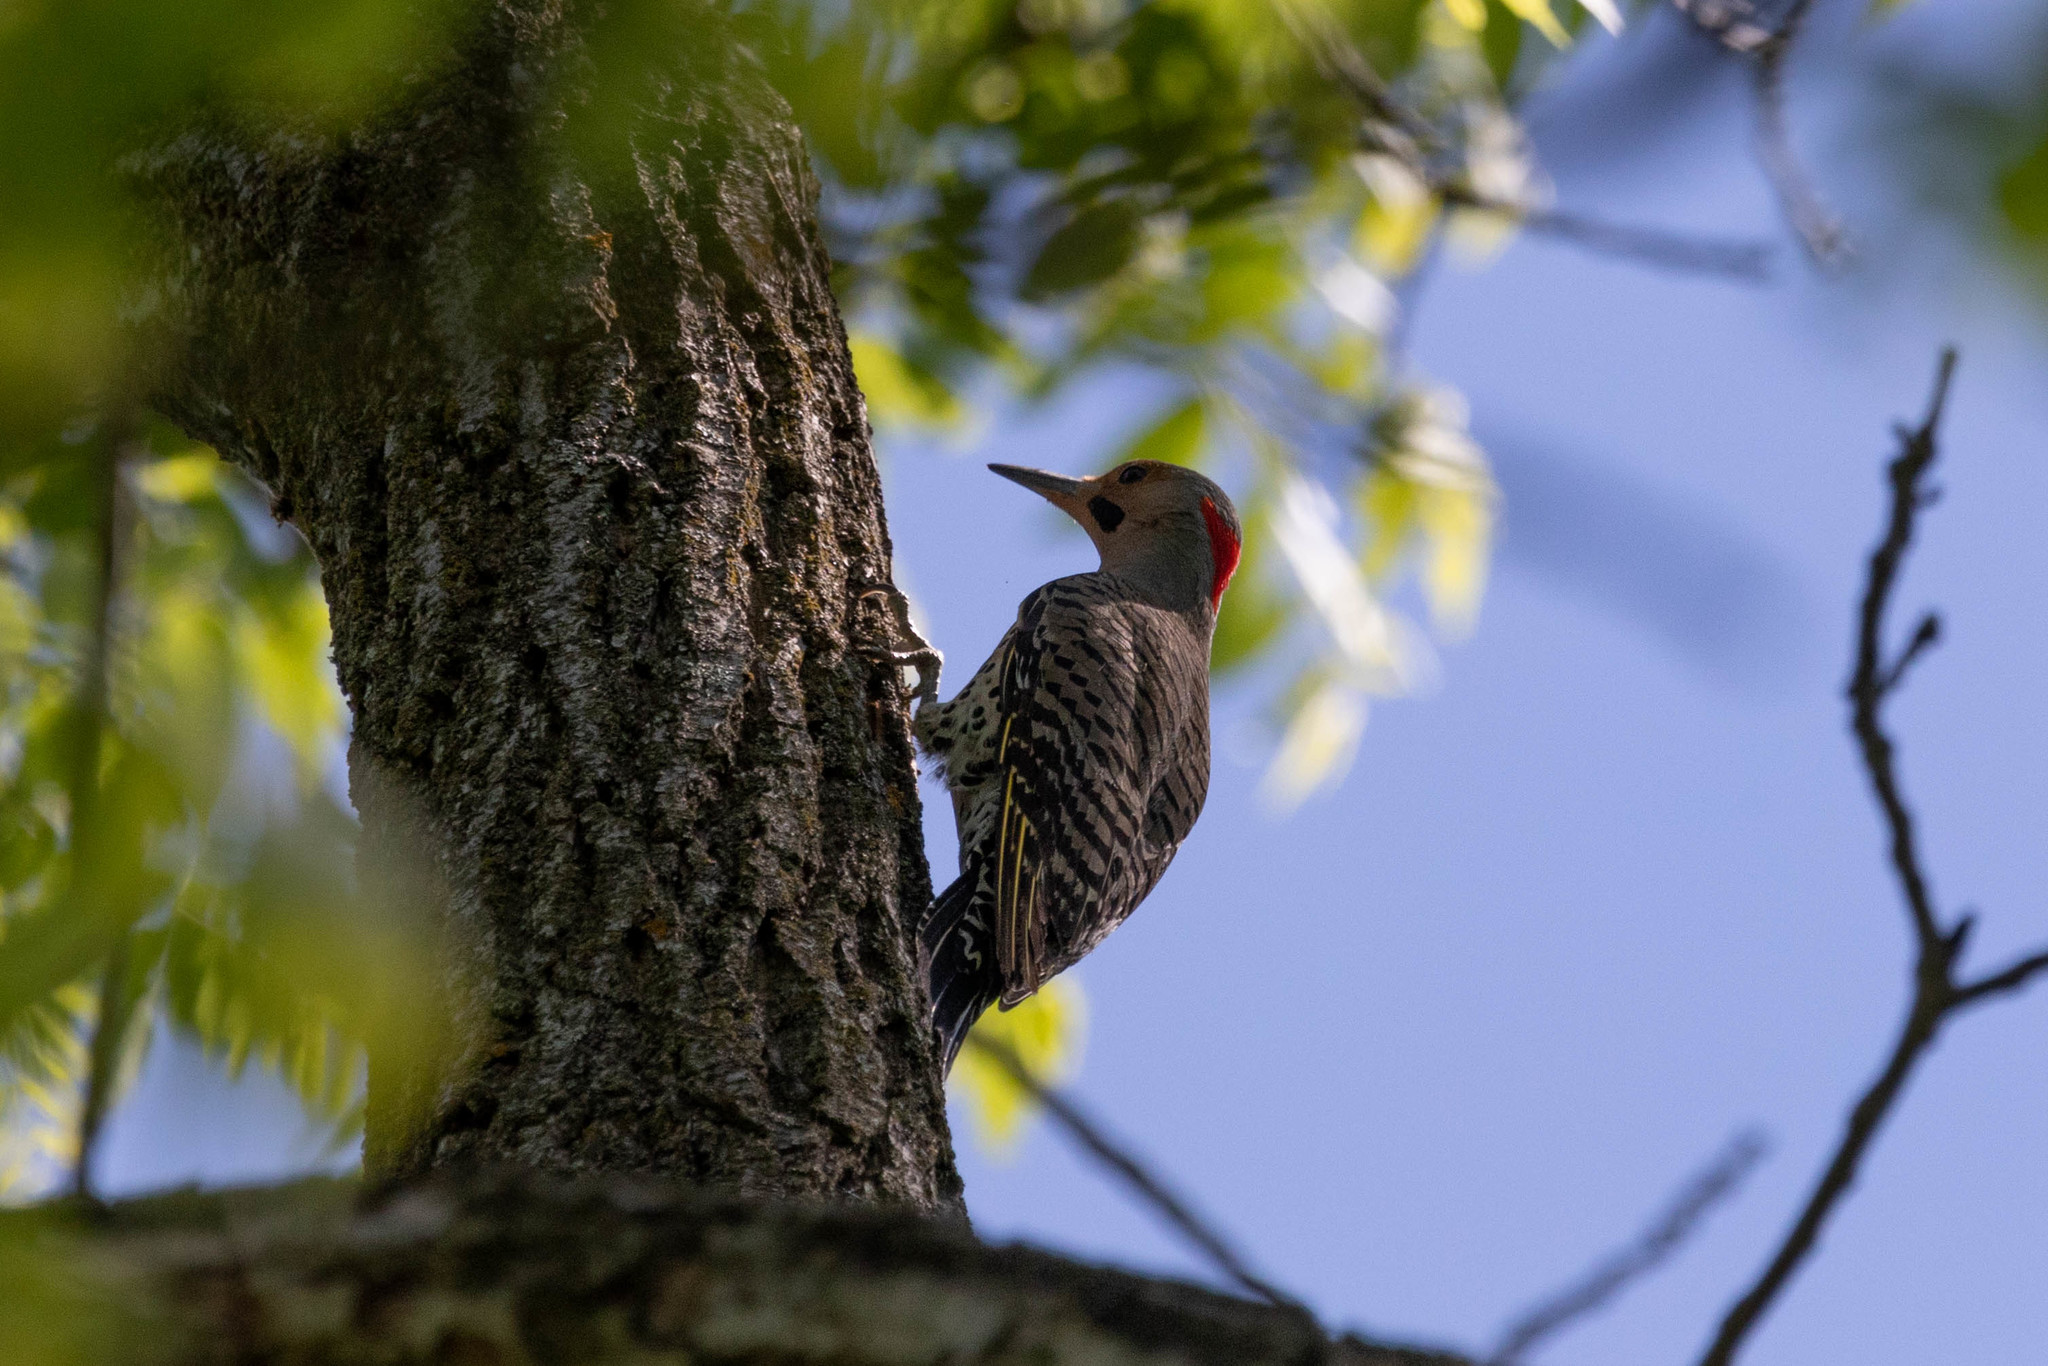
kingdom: Animalia
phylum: Chordata
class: Aves
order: Piciformes
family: Picidae
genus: Colaptes
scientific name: Colaptes auratus
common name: Northern flicker
